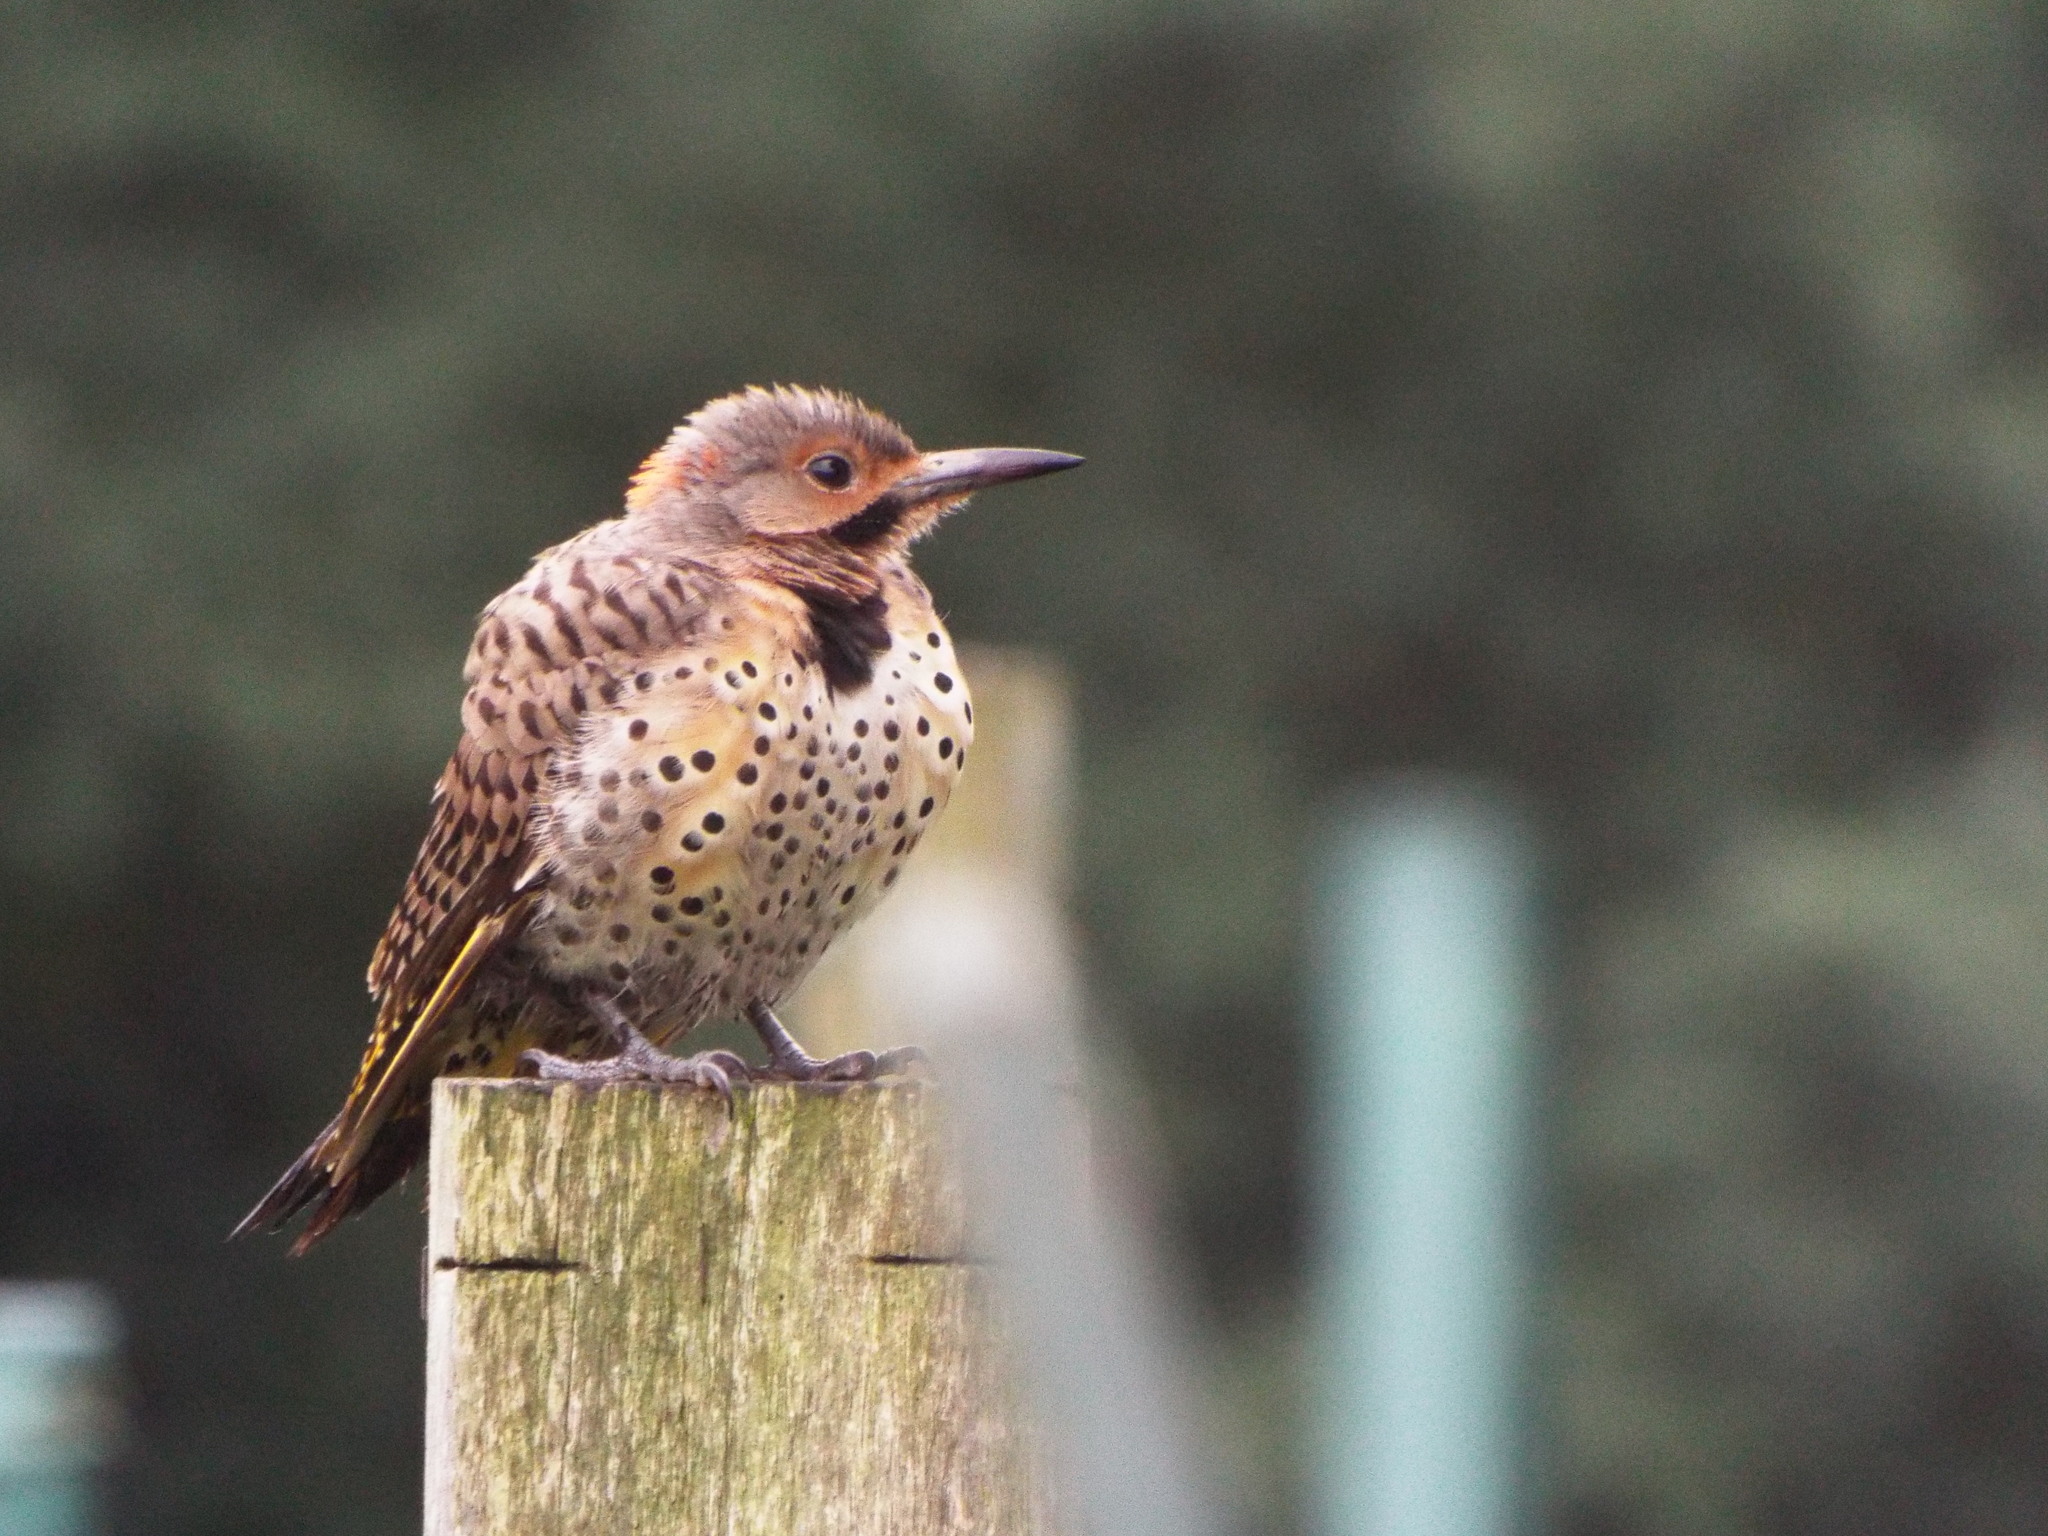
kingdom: Animalia
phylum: Chordata
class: Aves
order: Piciformes
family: Picidae
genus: Colaptes
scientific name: Colaptes auratus
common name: Northern flicker
